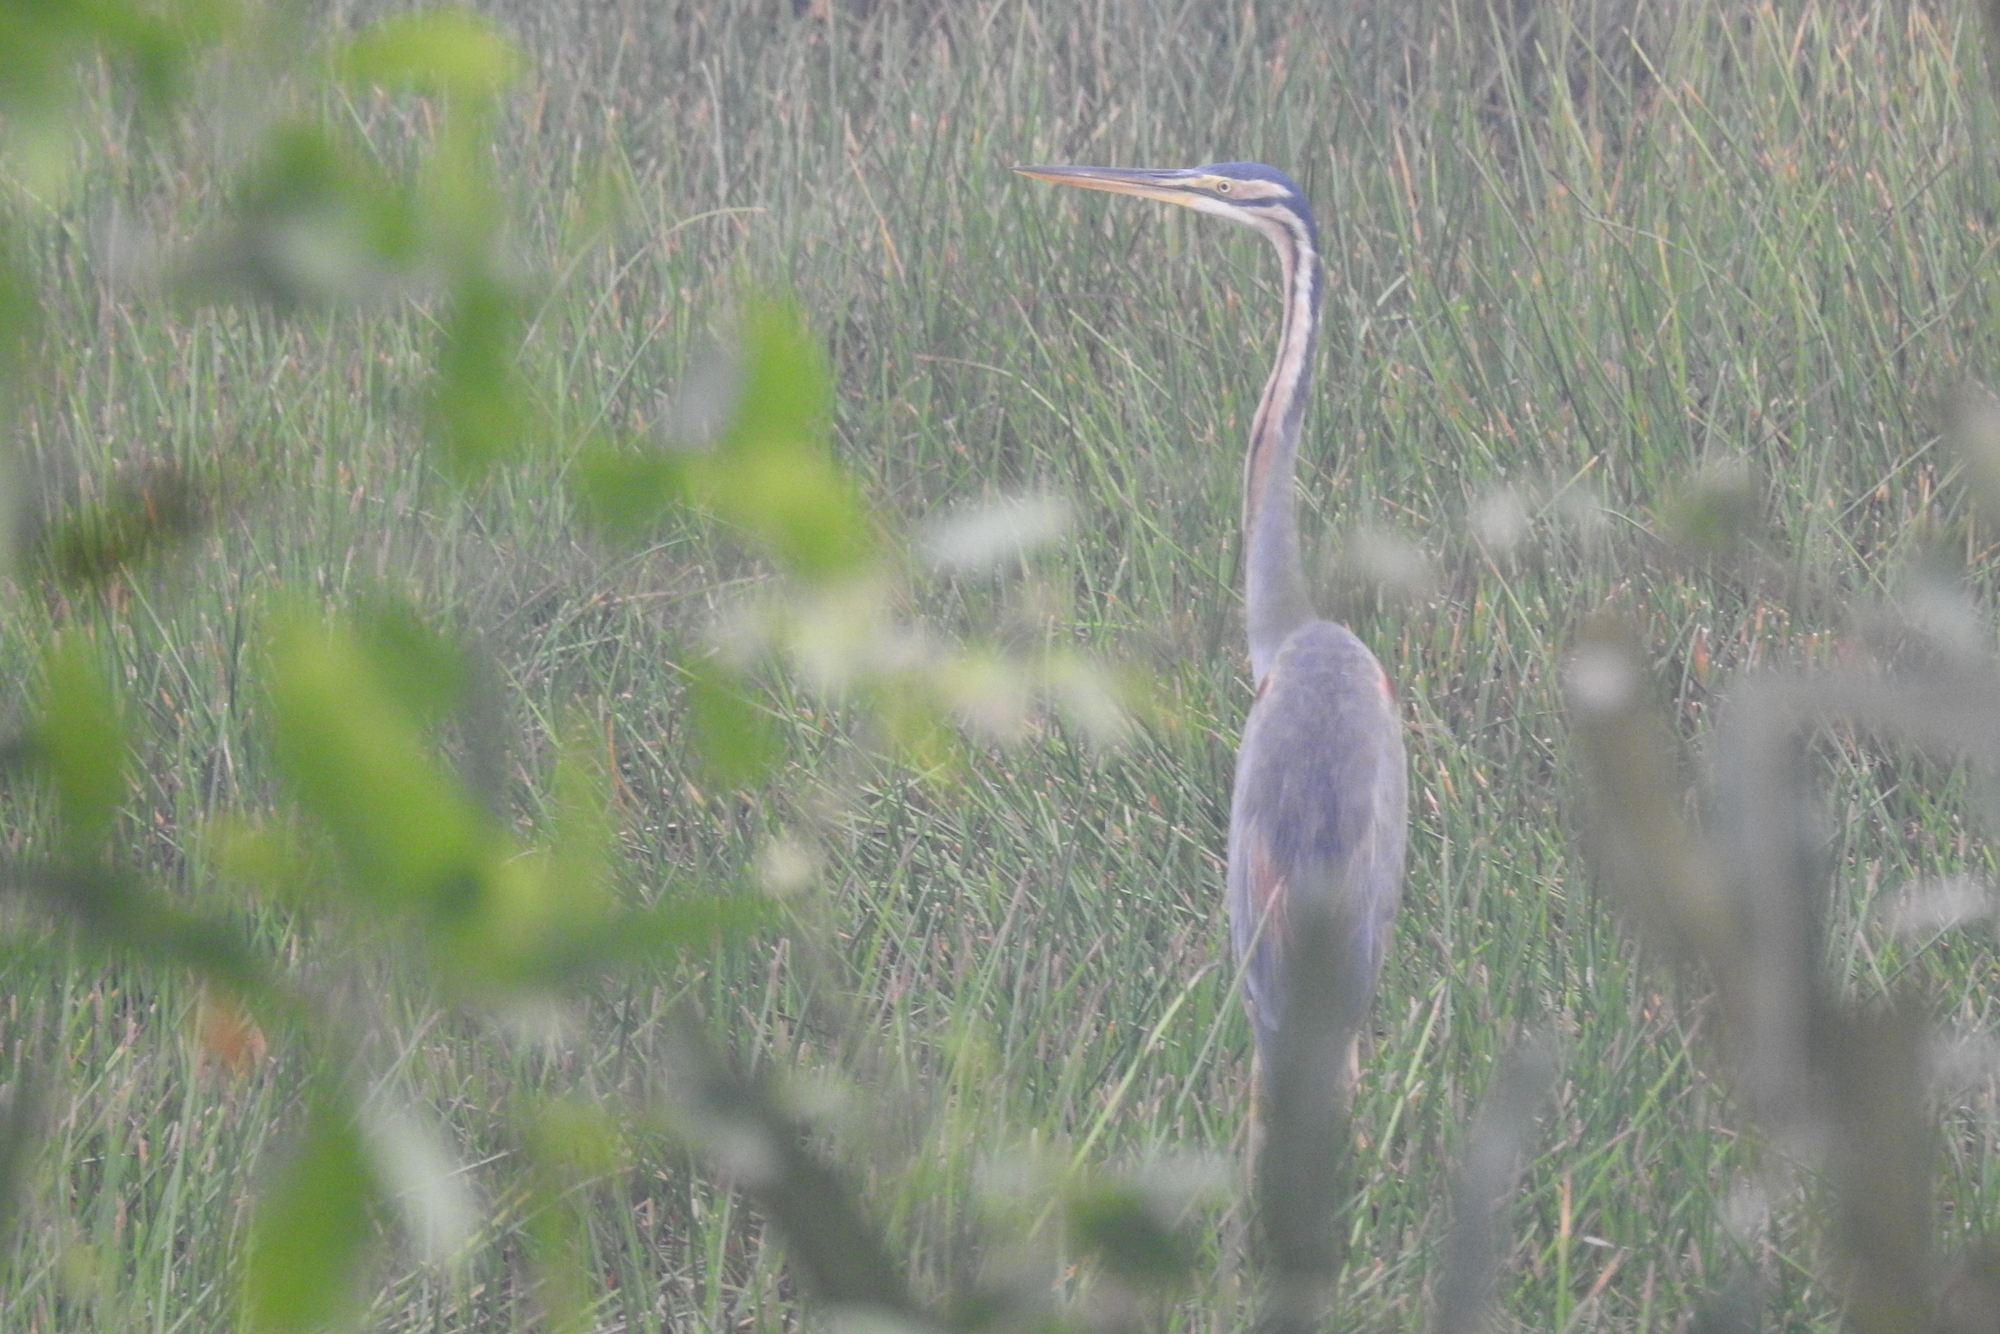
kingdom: Animalia
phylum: Chordata
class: Aves
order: Pelecaniformes
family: Ardeidae
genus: Ardea
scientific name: Ardea purpurea
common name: Purple heron
